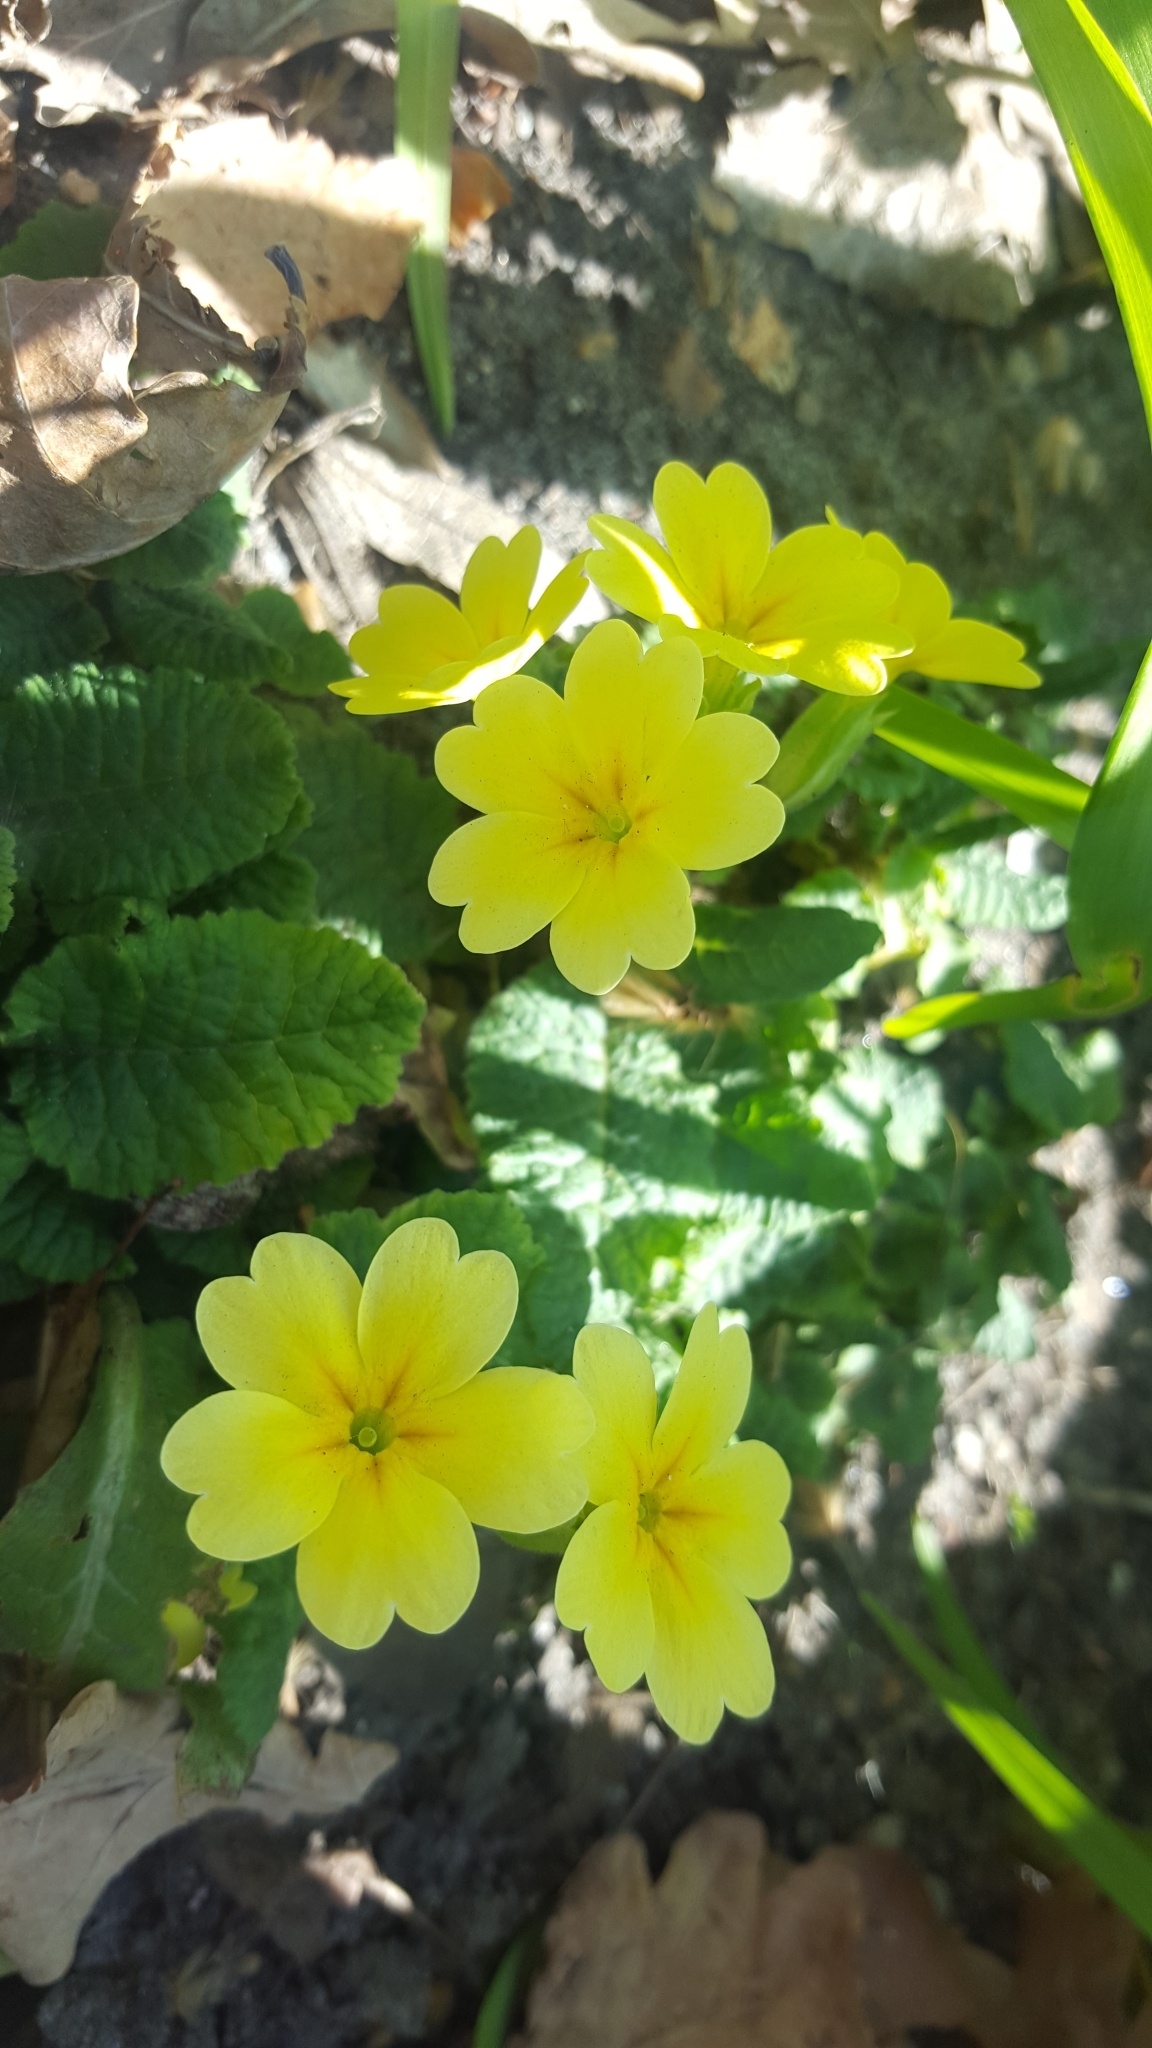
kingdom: Plantae
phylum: Tracheophyta
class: Magnoliopsida
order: Ericales
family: Primulaceae
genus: Primula
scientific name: Primula elatior
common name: Oxlip
